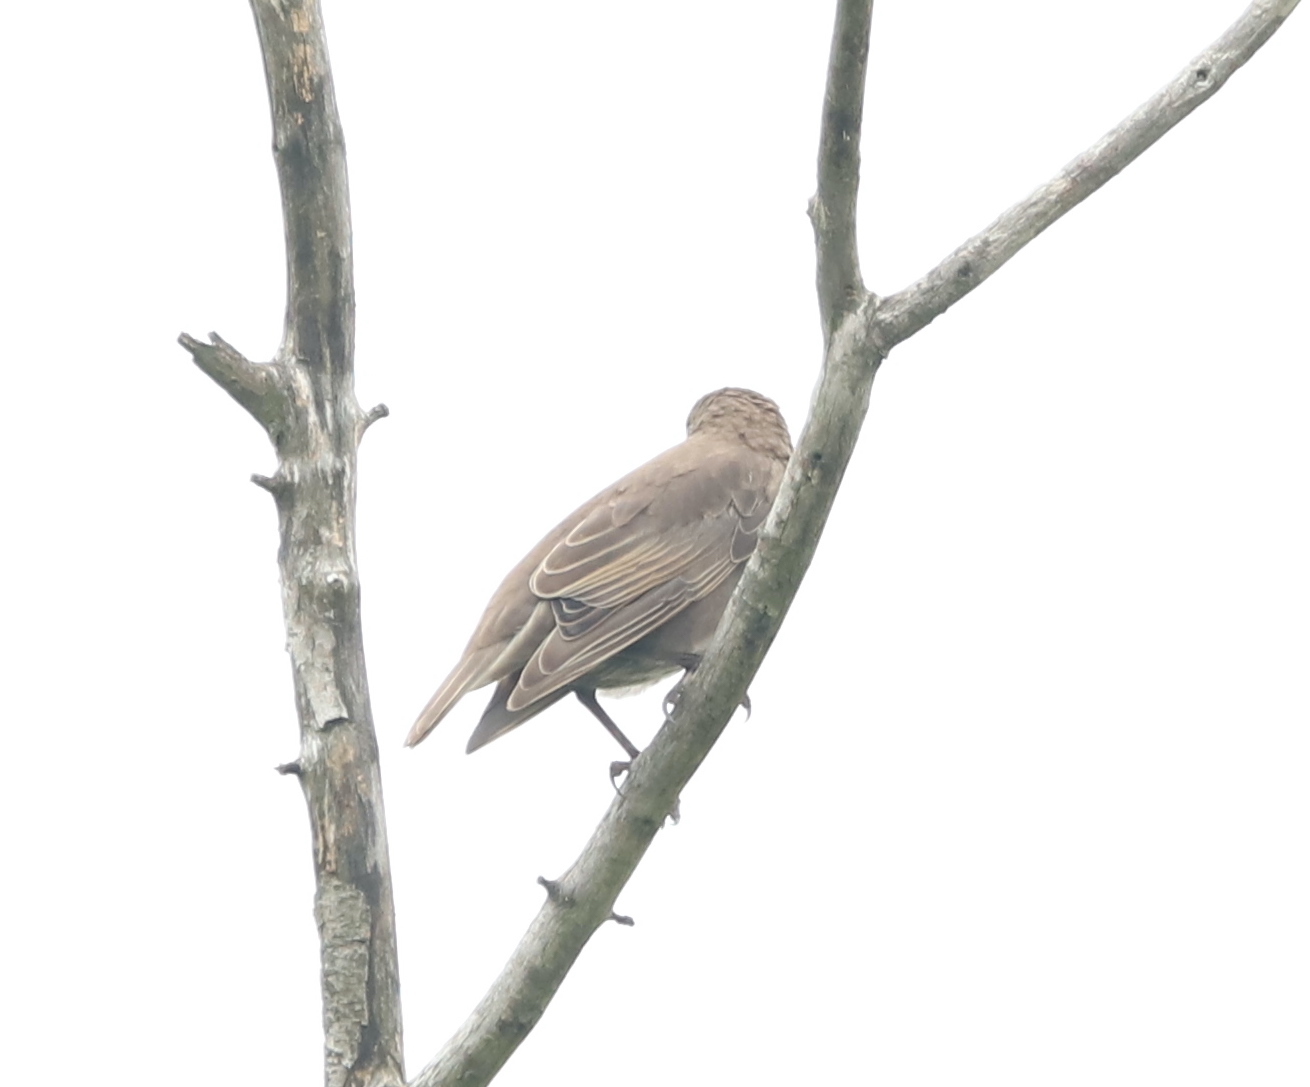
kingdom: Animalia
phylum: Chordata
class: Aves
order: Passeriformes
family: Sturnidae
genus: Sturnus
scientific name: Sturnus vulgaris
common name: Common starling
